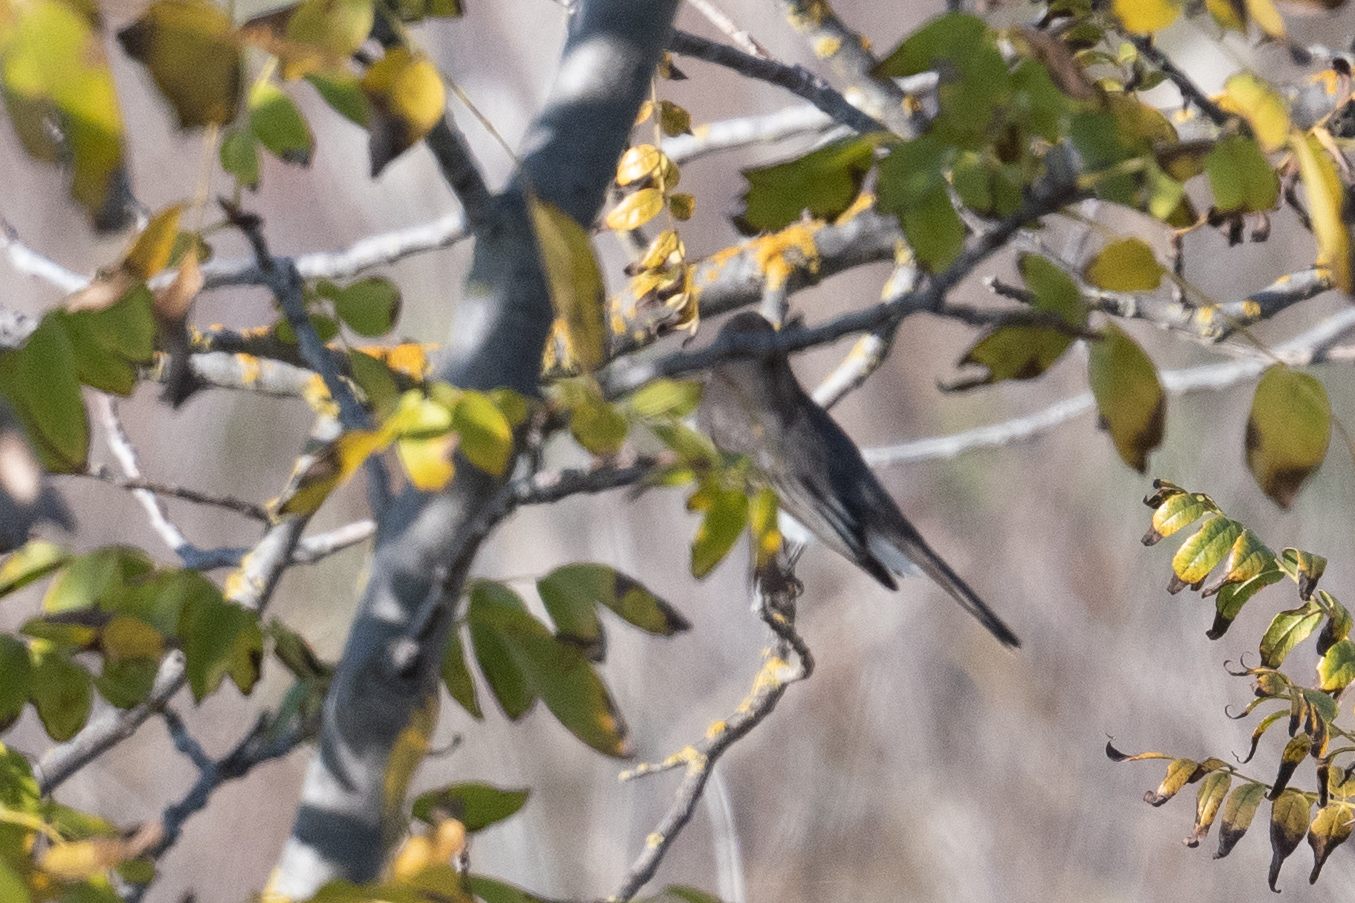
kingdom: Animalia
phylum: Chordata
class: Aves
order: Passeriformes
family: Tyrannidae
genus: Sayornis
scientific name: Sayornis nigricans
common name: Black phoebe
